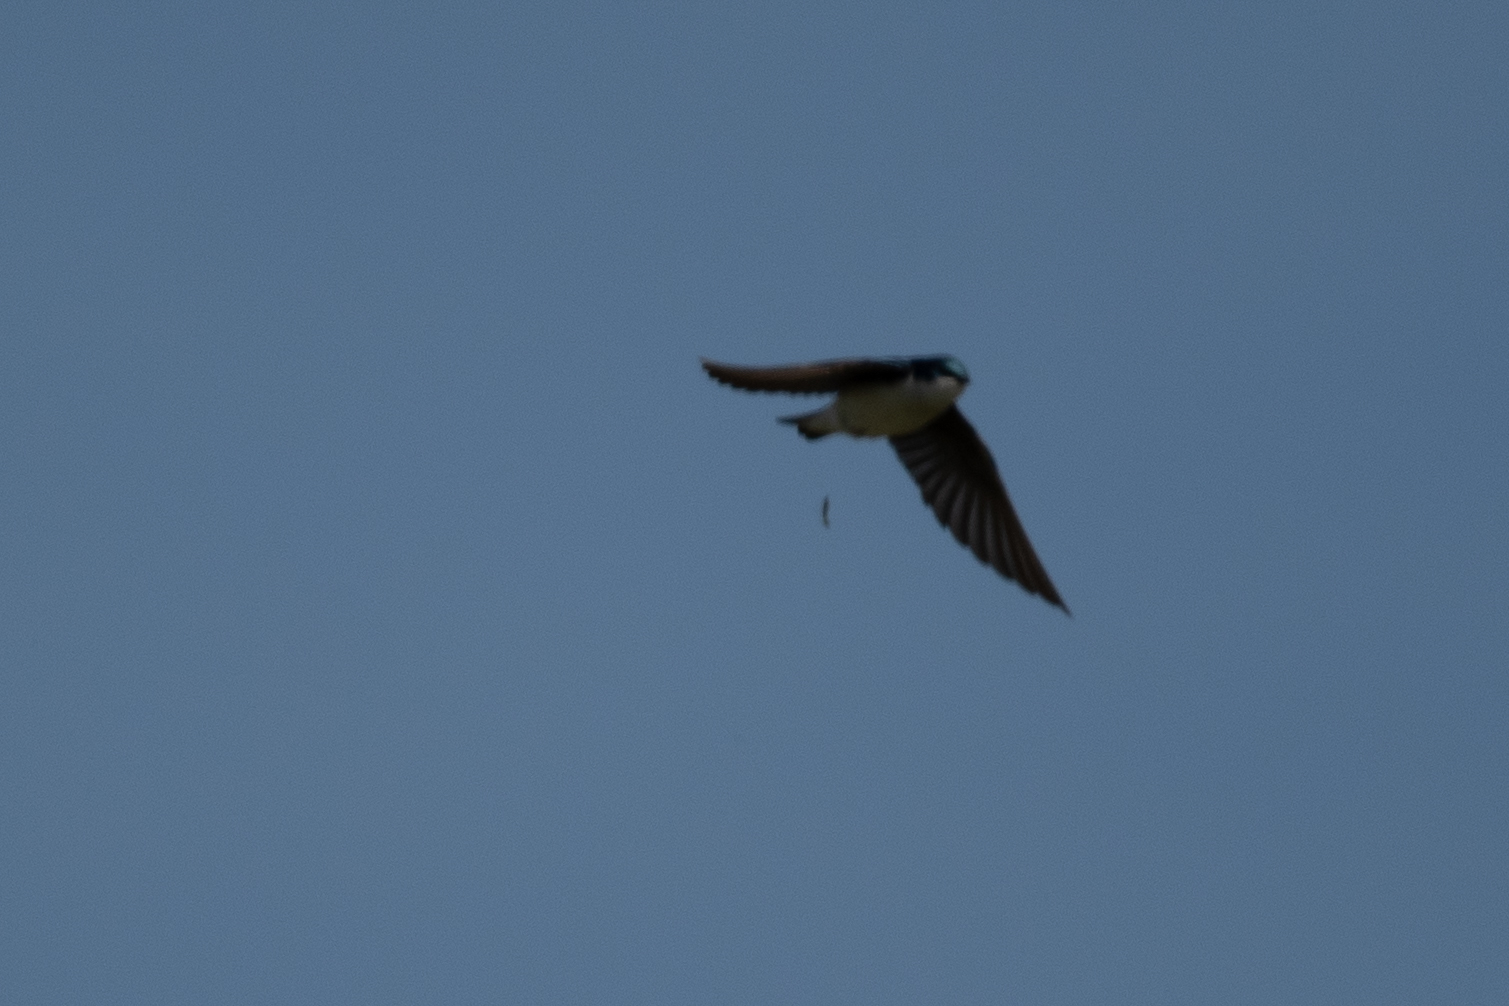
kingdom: Animalia
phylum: Chordata
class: Aves
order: Passeriformes
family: Hirundinidae
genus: Tachycineta
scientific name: Tachycineta bicolor
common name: Tree swallow
